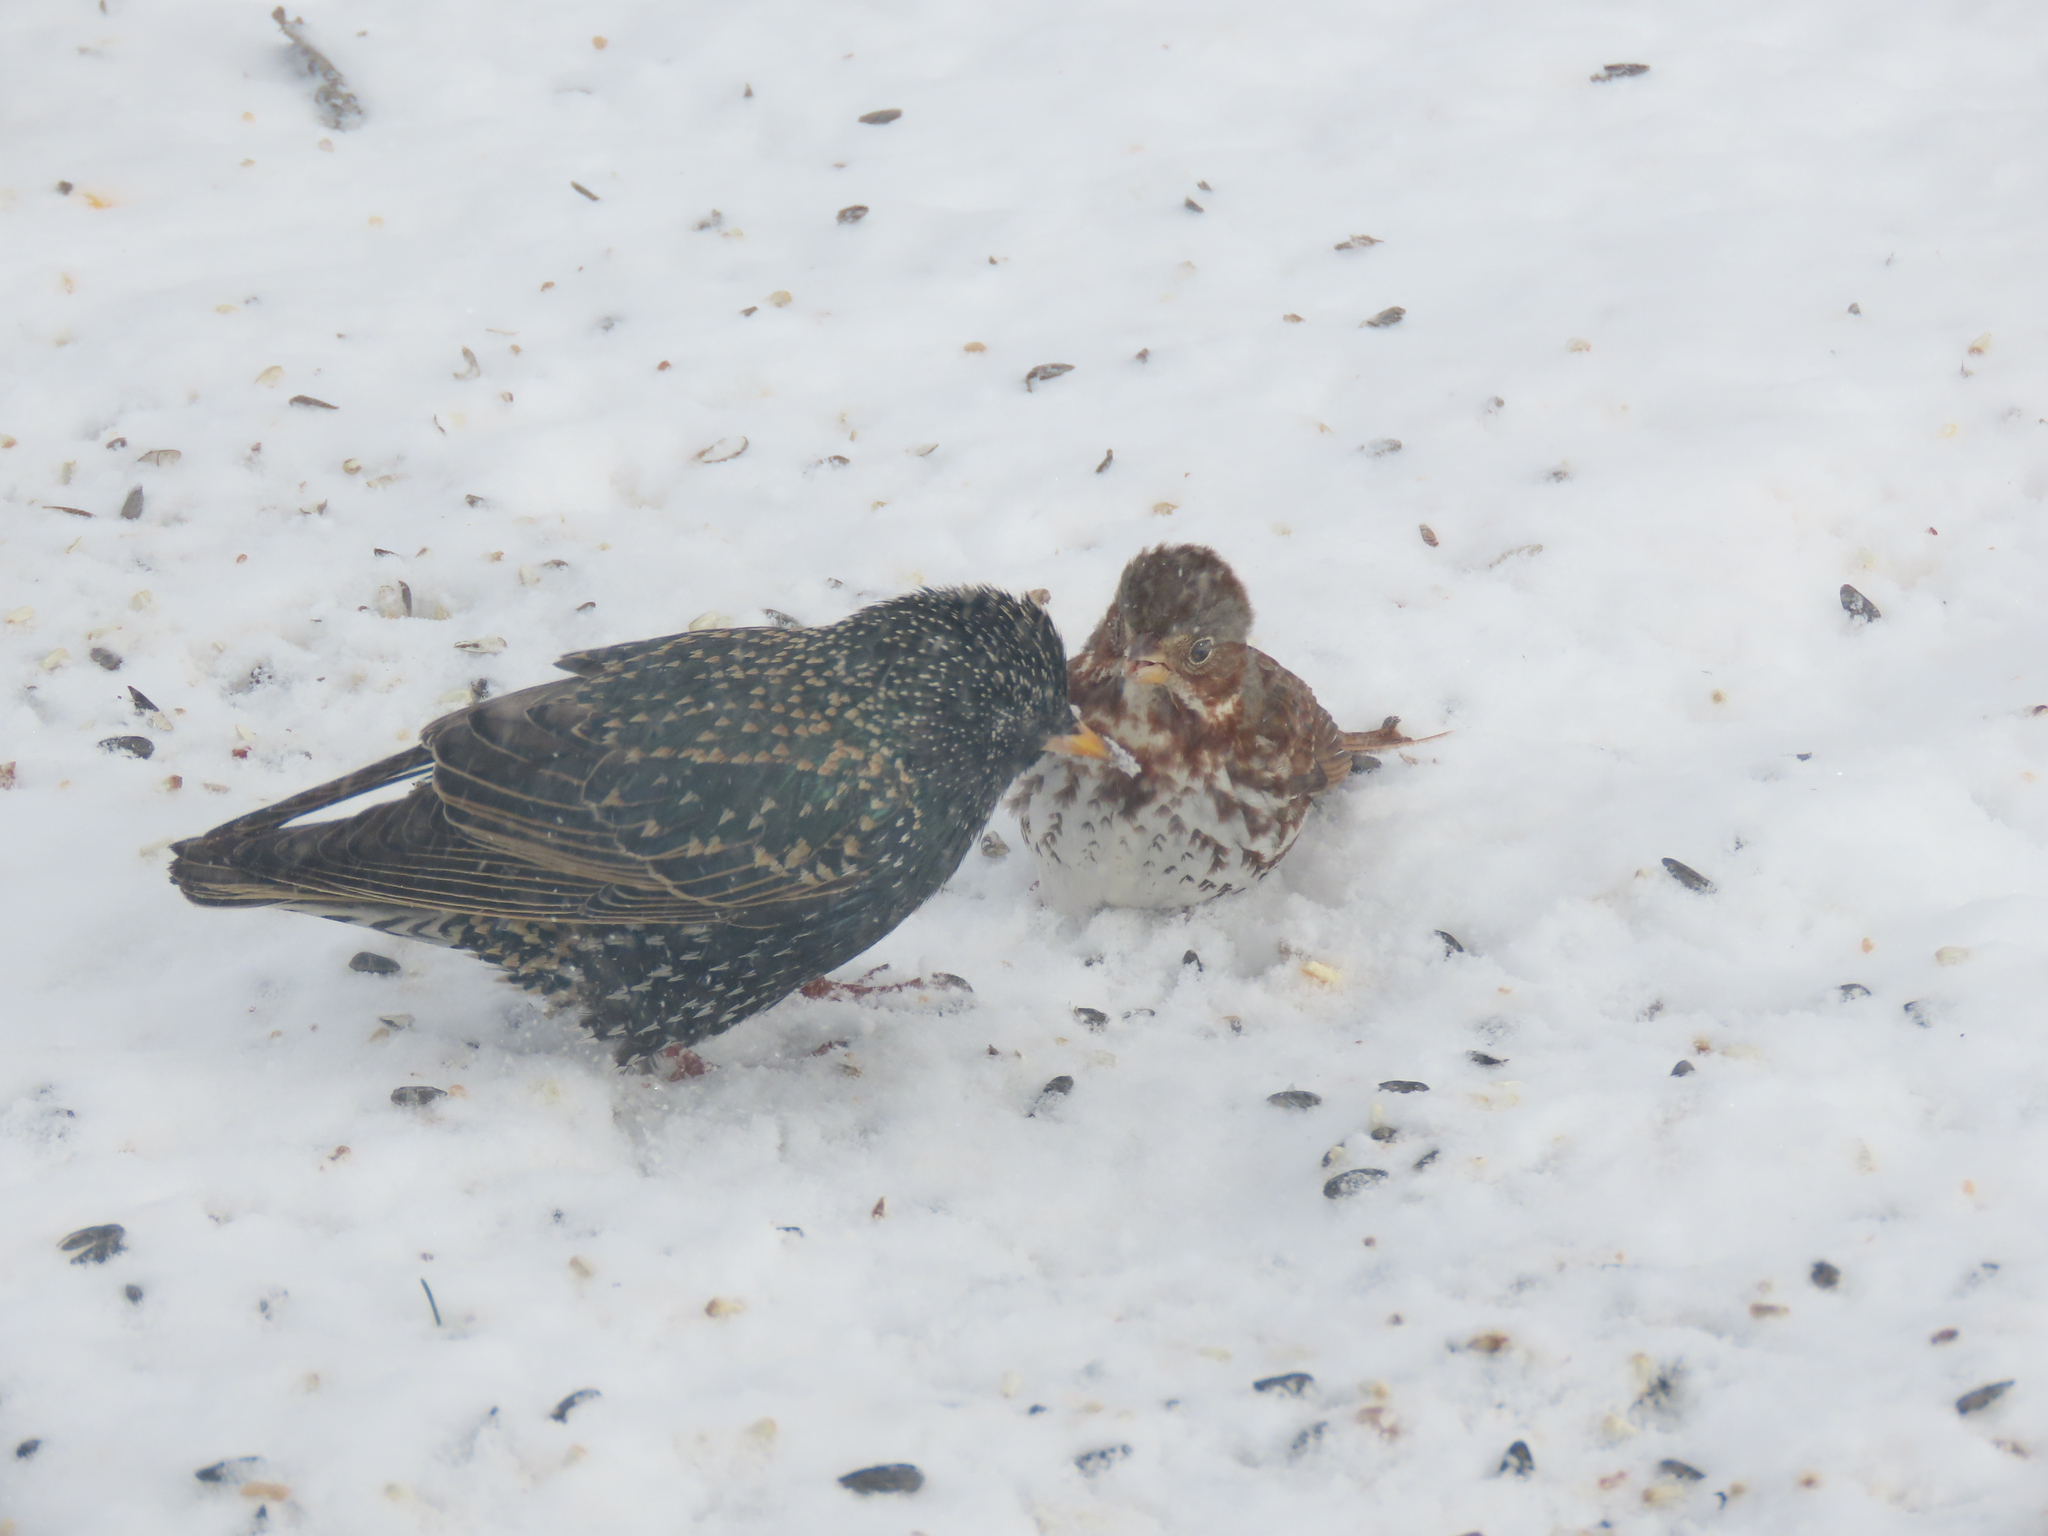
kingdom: Animalia
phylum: Chordata
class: Aves
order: Passeriformes
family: Sturnidae
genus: Sturnus
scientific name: Sturnus vulgaris
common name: Common starling
